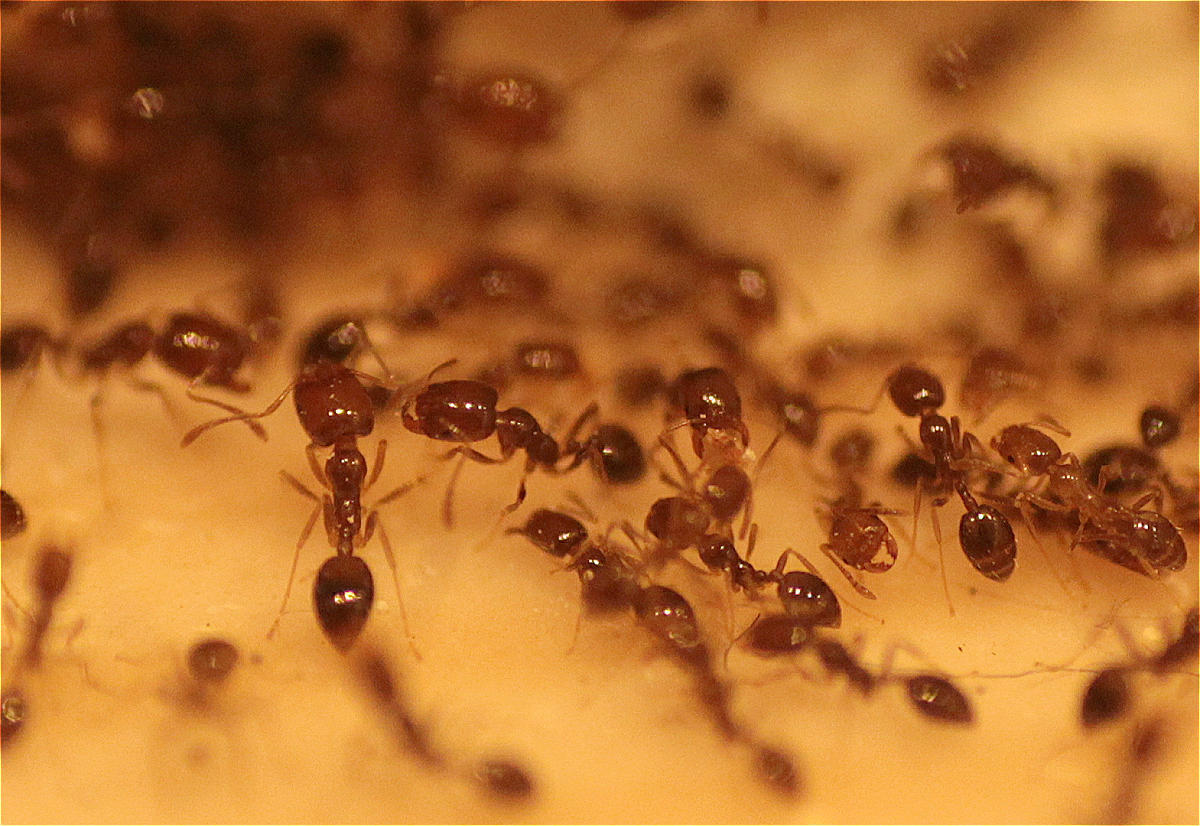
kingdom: Animalia
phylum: Arthropoda
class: Insecta
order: Hymenoptera
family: Formicidae
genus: Monomorium
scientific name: Monomorium destructor
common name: Destructive trailing ant
